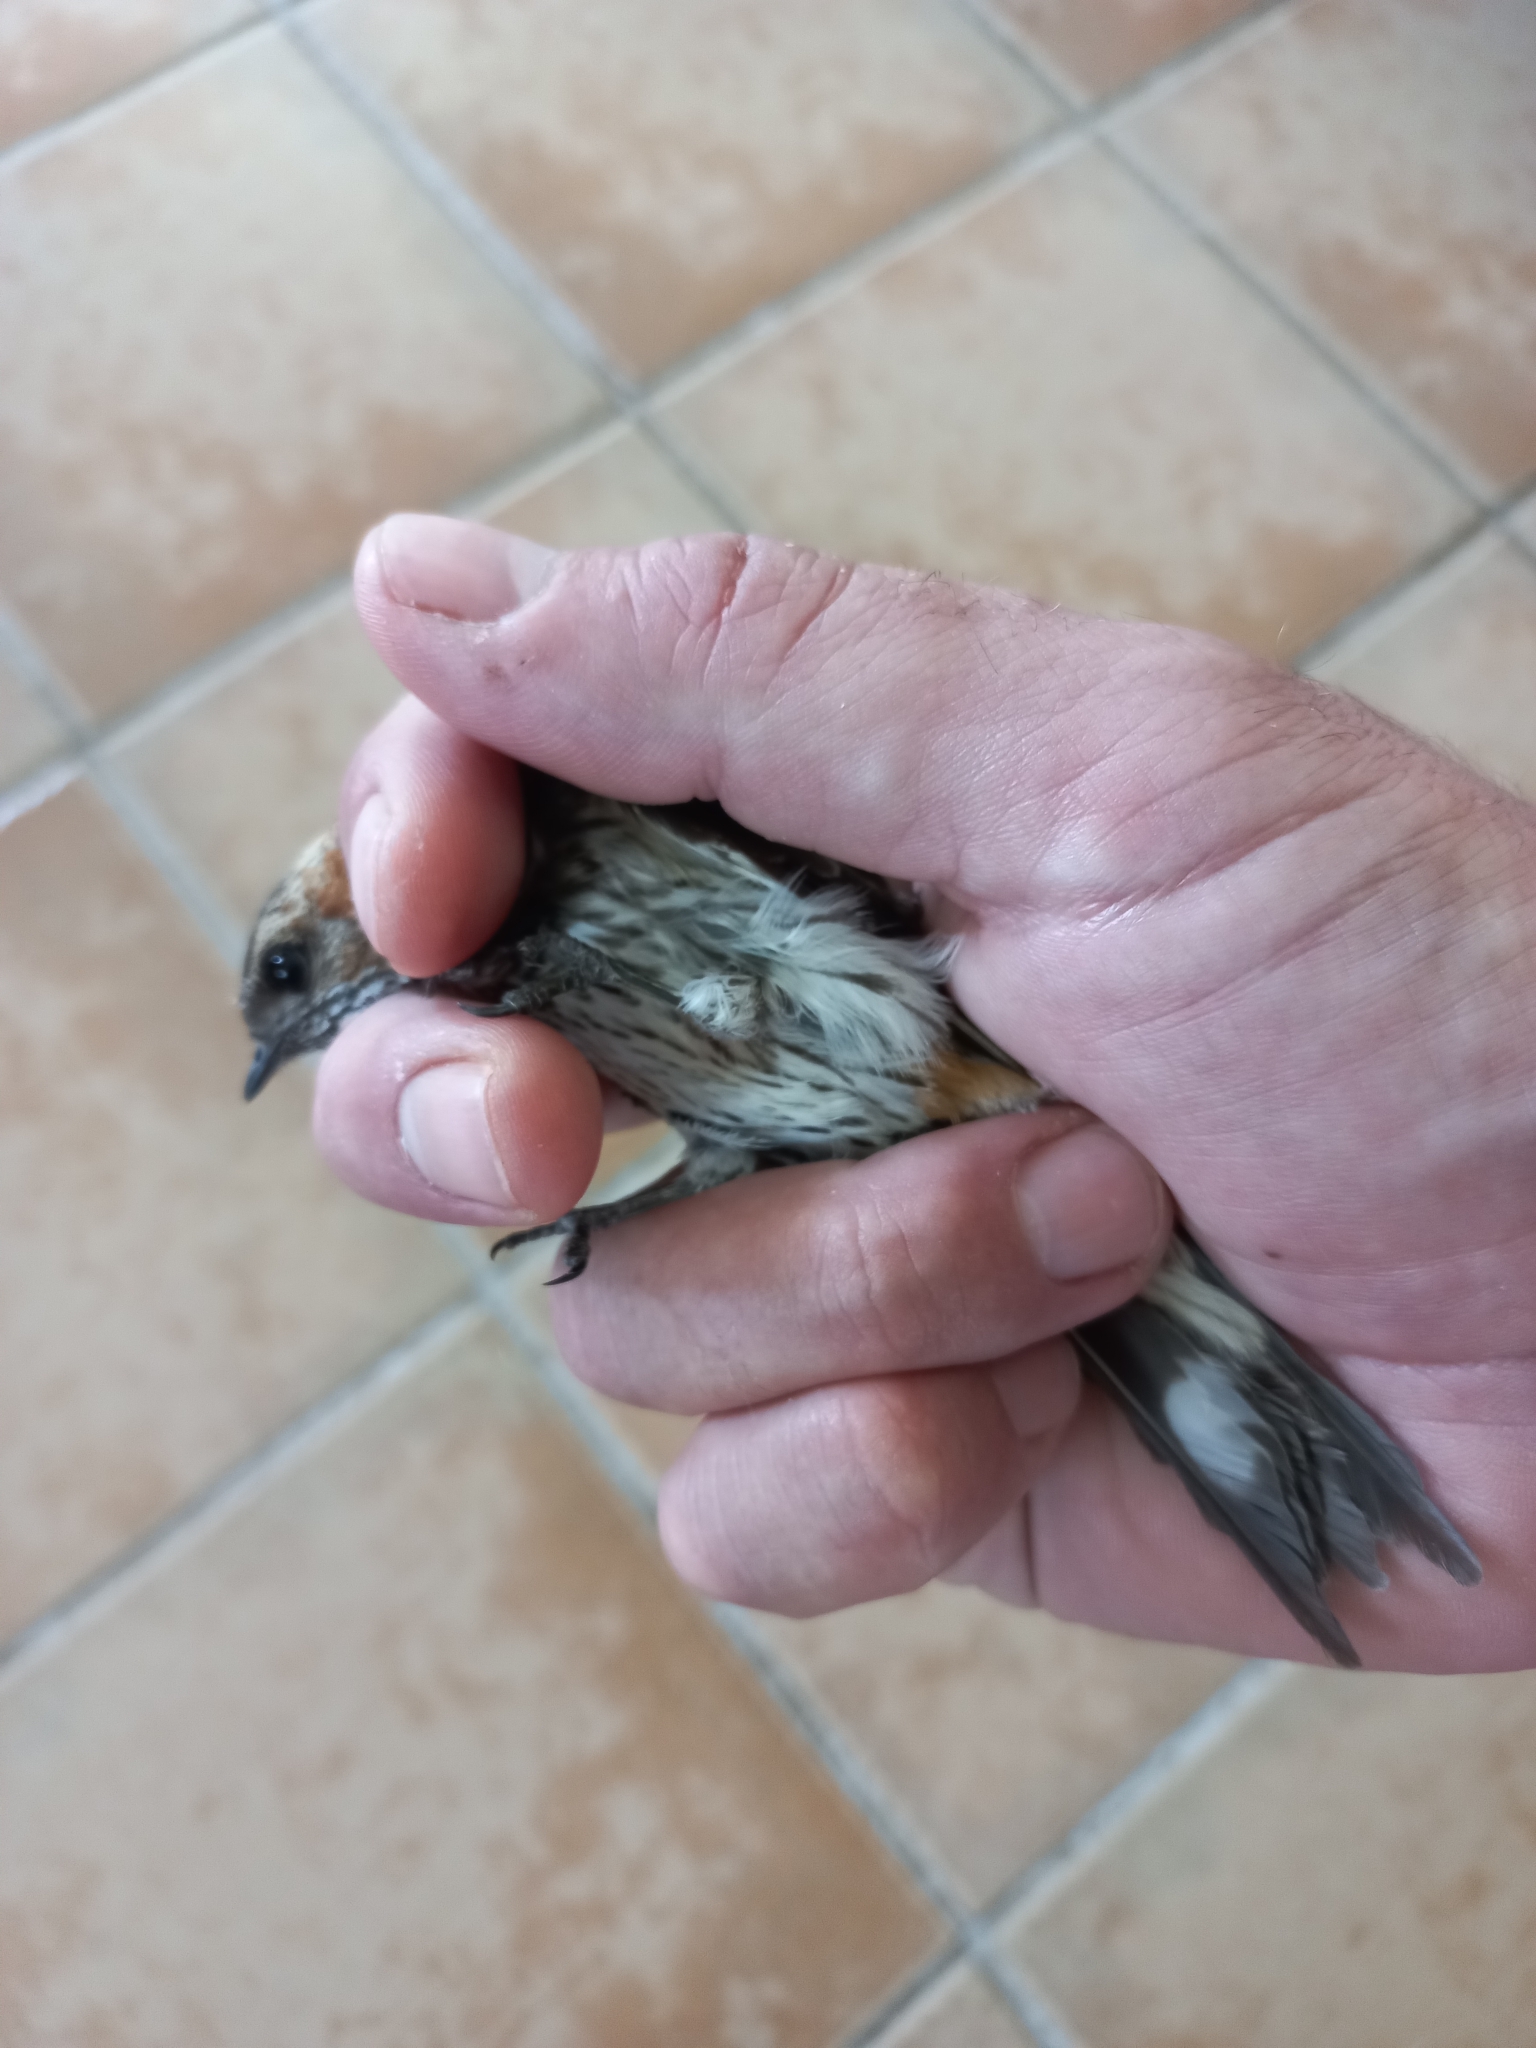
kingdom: Animalia
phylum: Chordata
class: Aves
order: Passeriformes
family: Hirundinidae
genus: Cecropis
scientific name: Cecropis abyssinica
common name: Lesser striped-swallow
